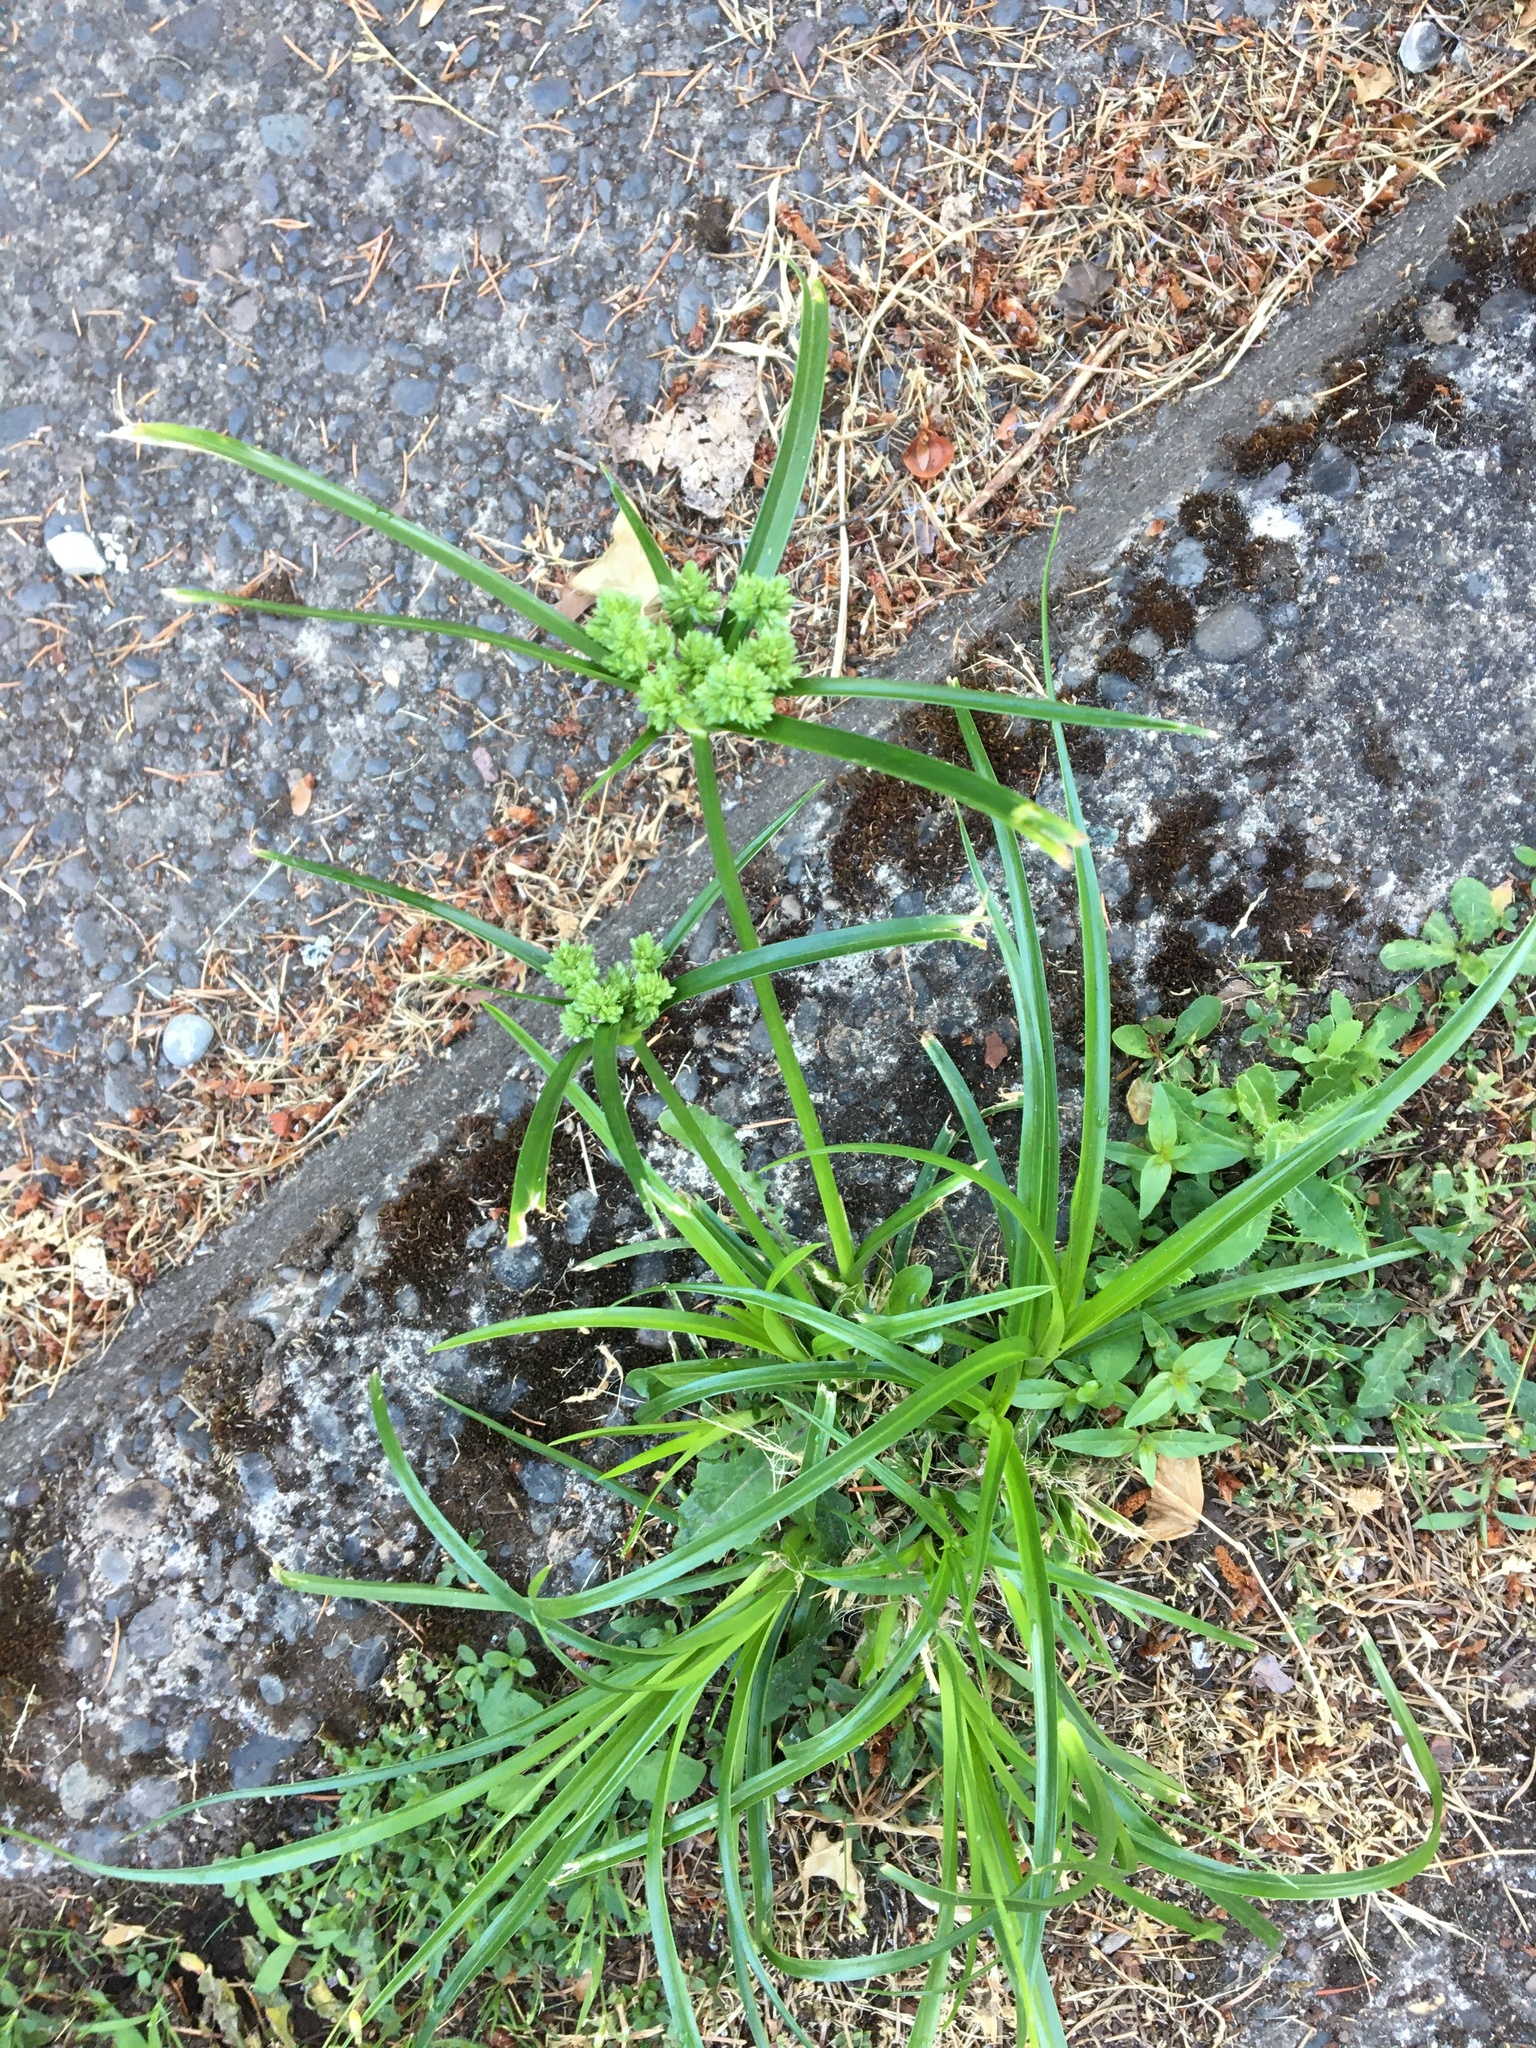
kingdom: Plantae
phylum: Tracheophyta
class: Liliopsida
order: Poales
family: Cyperaceae
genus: Cyperus
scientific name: Cyperus eragrostis
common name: Tall flatsedge
